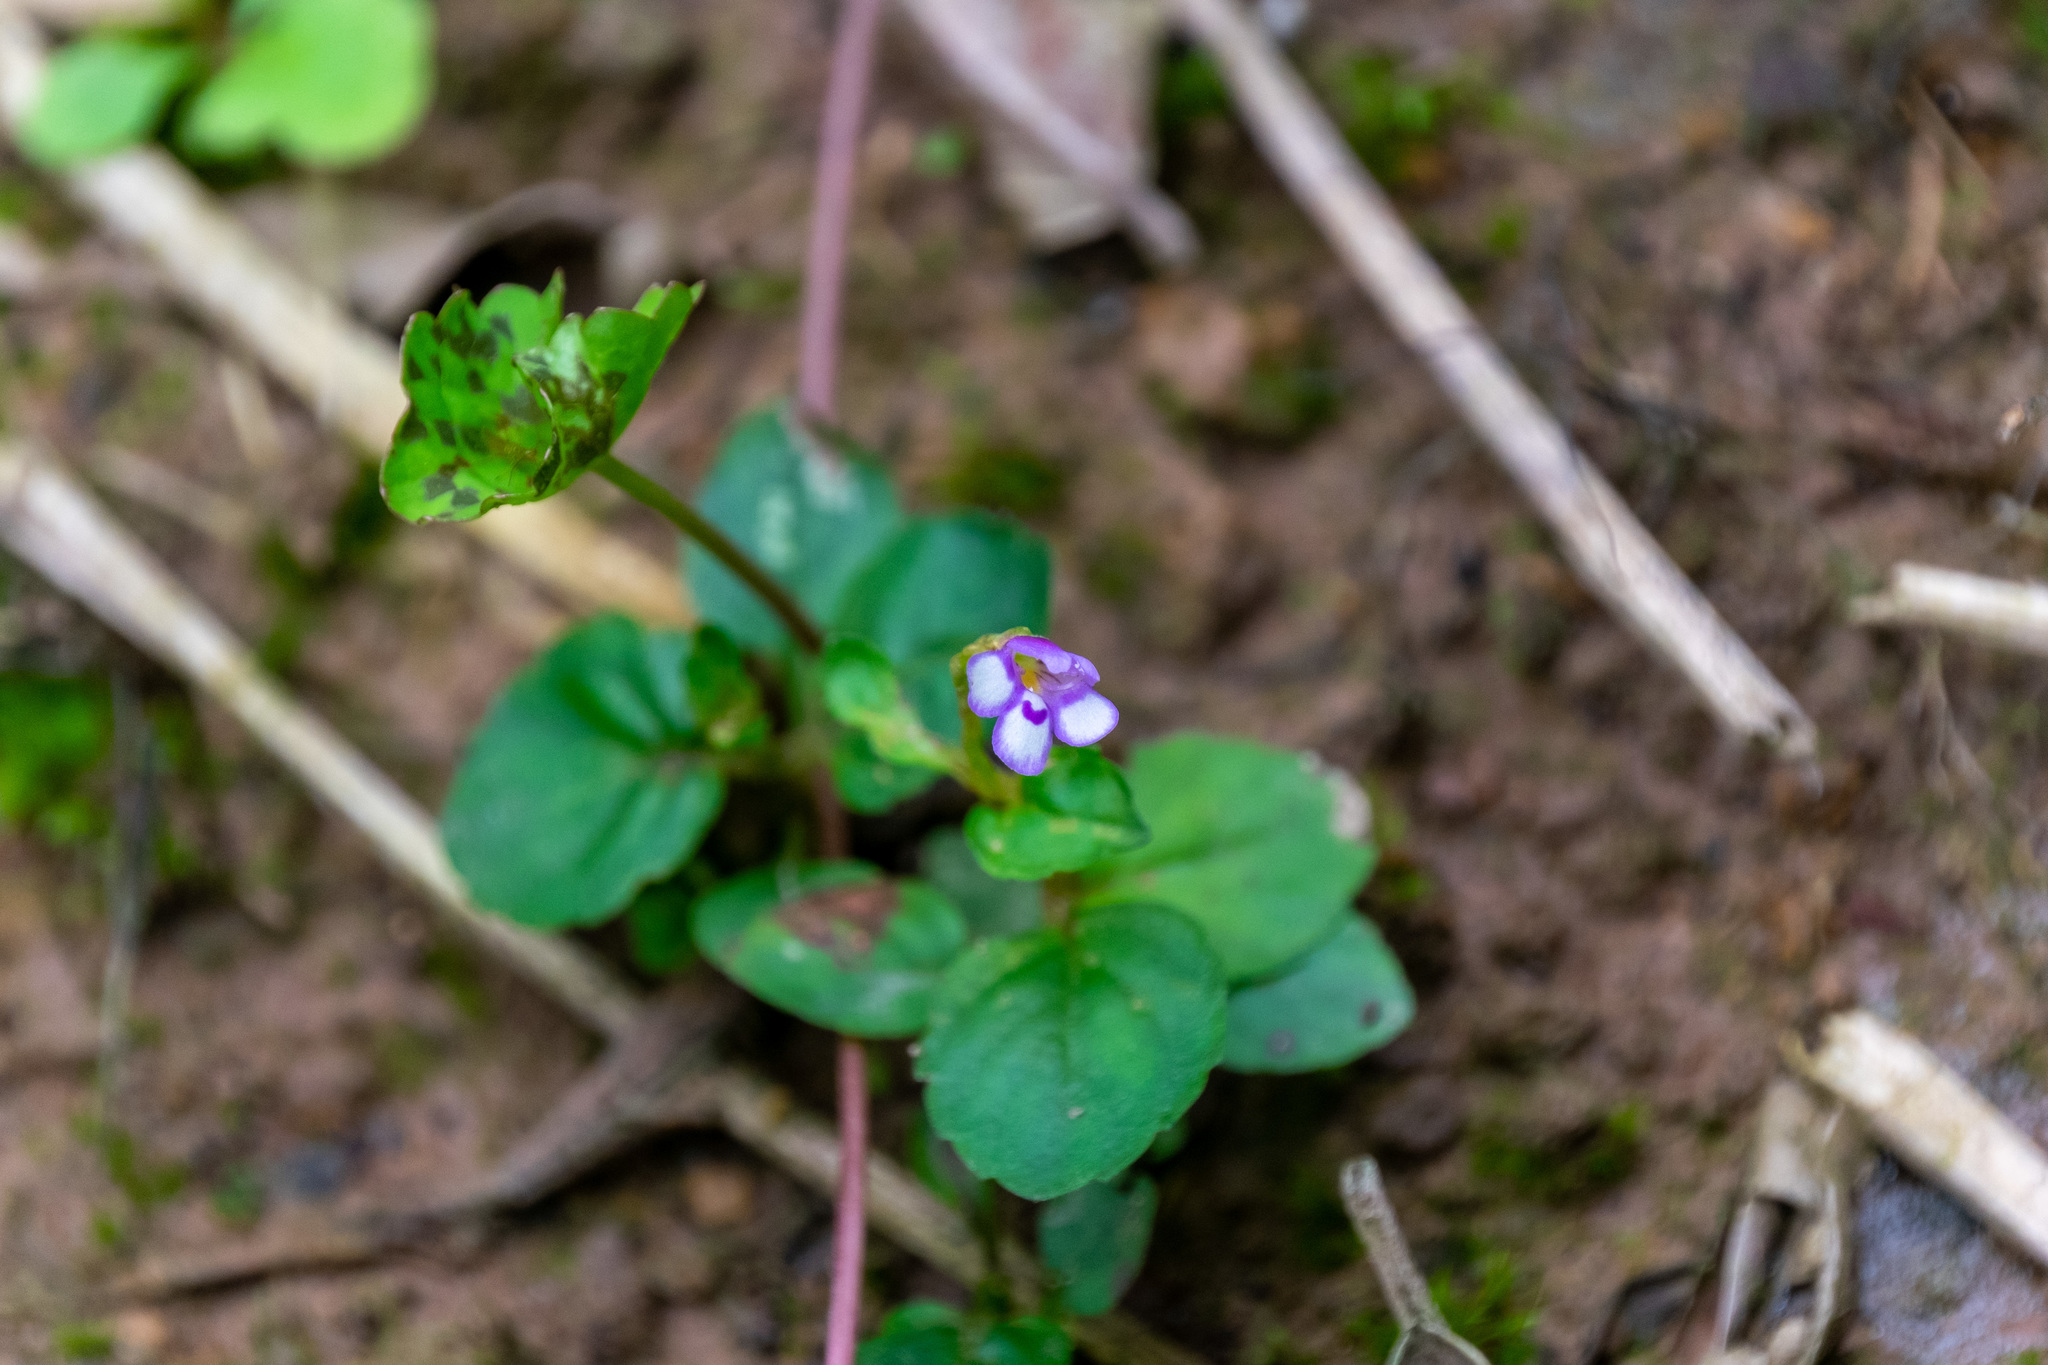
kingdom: Plantae
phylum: Tracheophyta
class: Magnoliopsida
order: Lamiales
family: Linderniaceae
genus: Torenia
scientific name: Torenia crustacea
